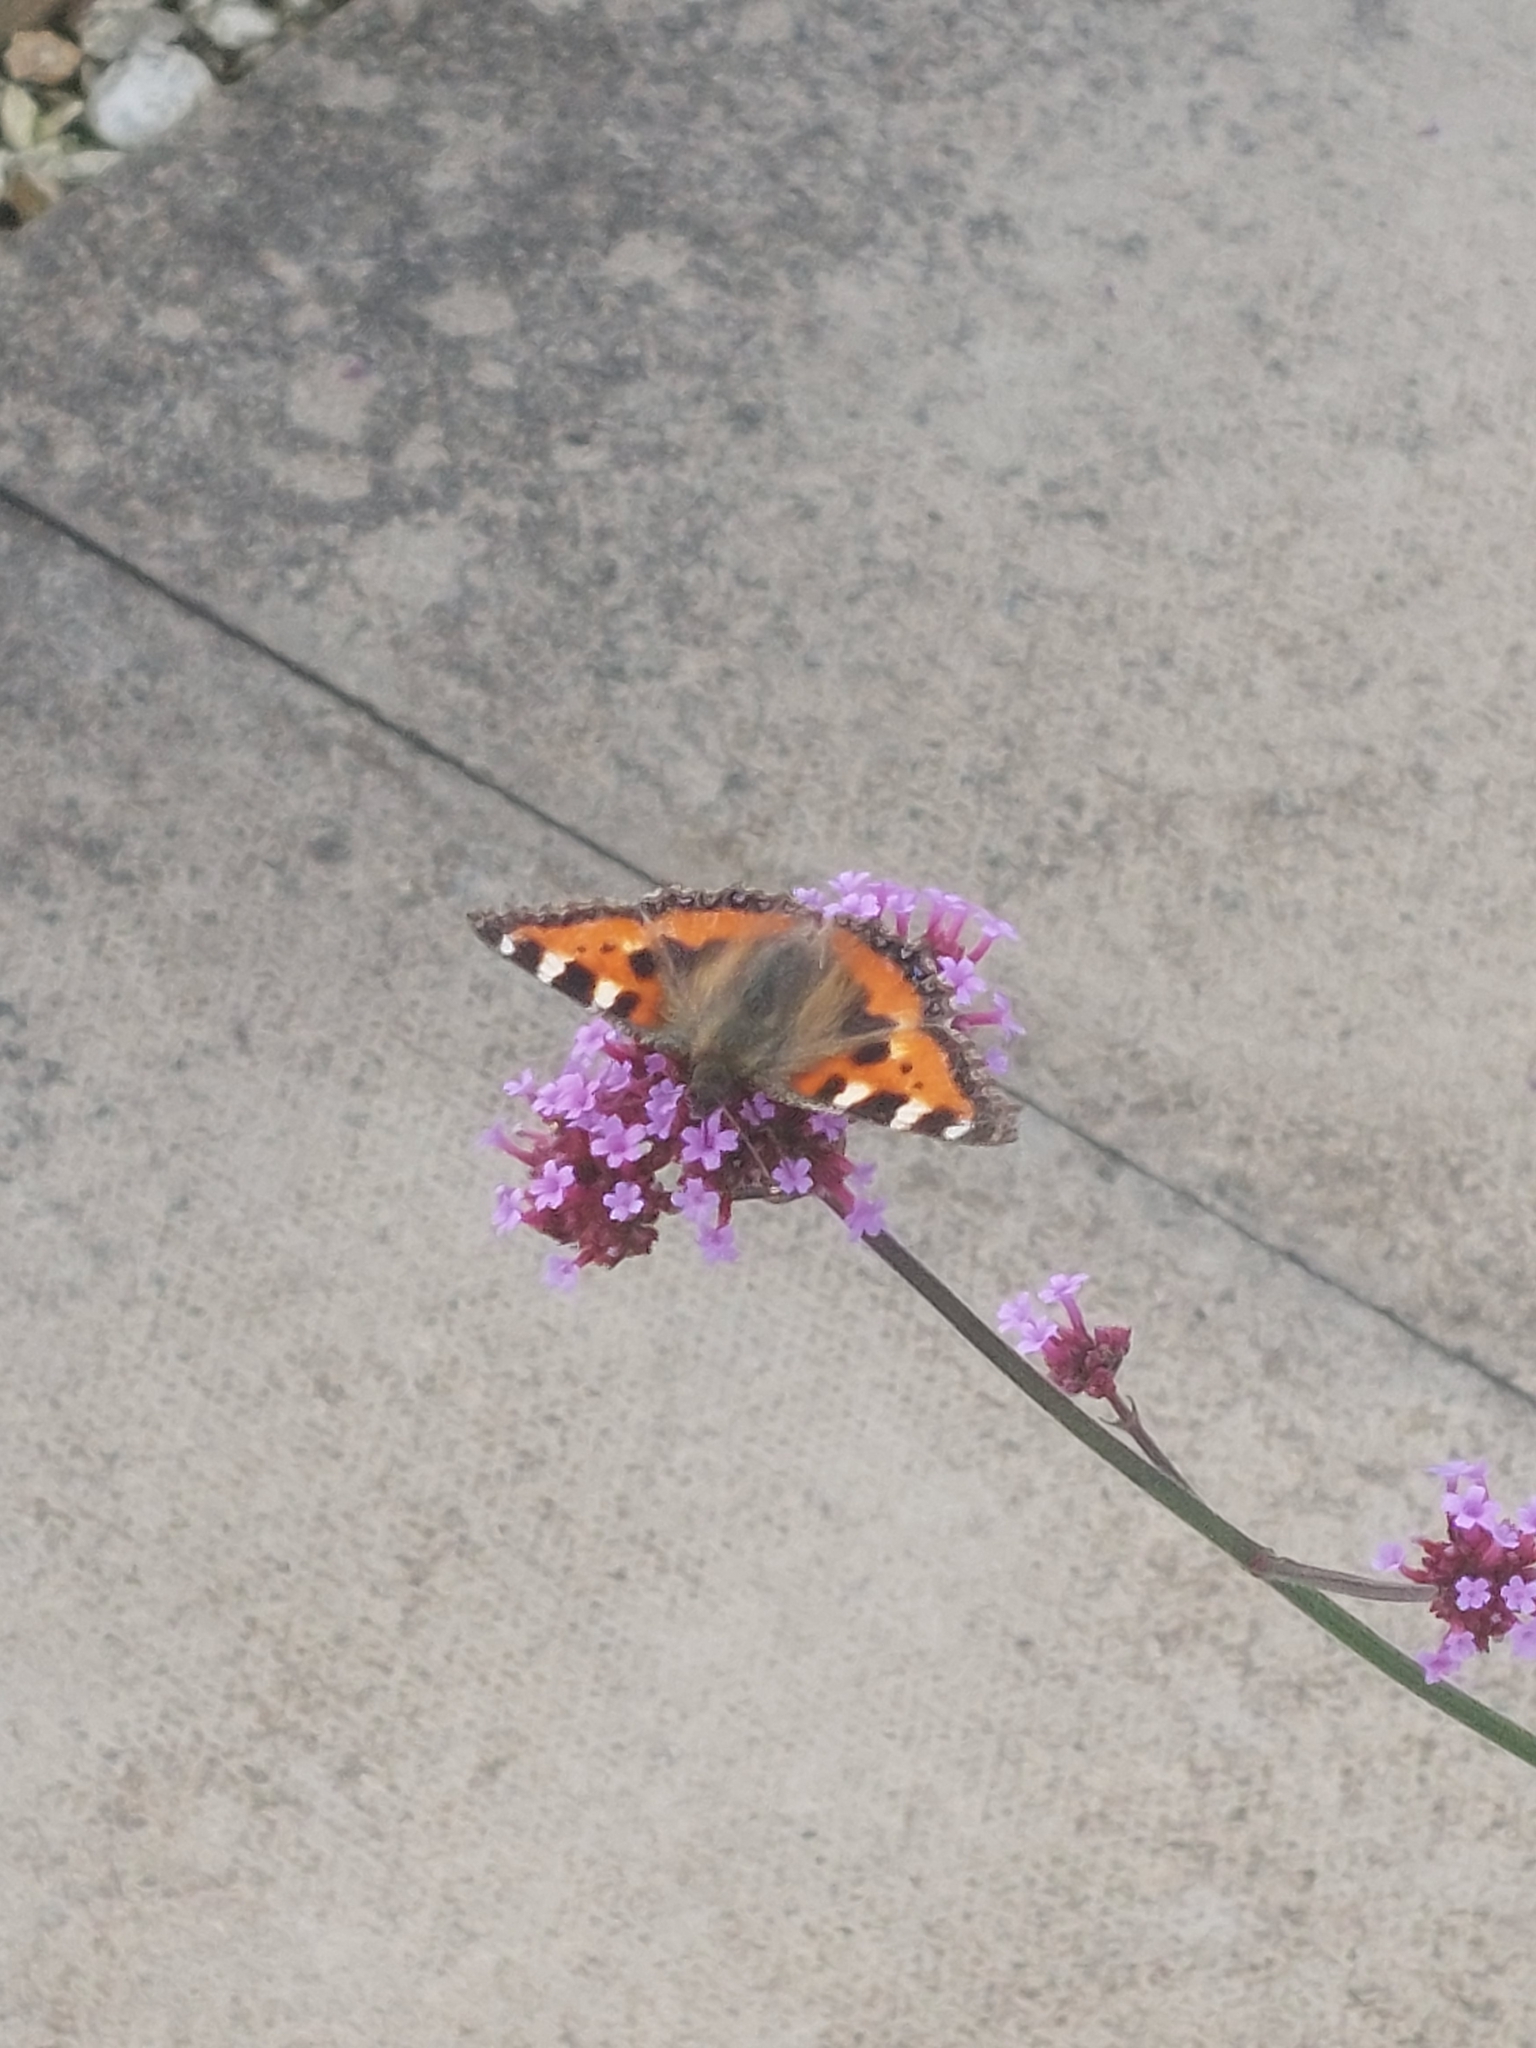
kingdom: Animalia
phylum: Arthropoda
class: Insecta
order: Lepidoptera
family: Nymphalidae
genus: Aglais
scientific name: Aglais urticae
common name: Small tortoiseshell
